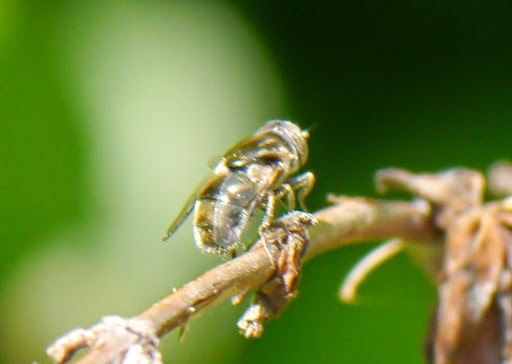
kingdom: Animalia
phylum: Arthropoda
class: Insecta
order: Diptera
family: Syrphidae
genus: Eristalinus
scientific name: Eristalinus aeneus
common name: Syrphid fly
